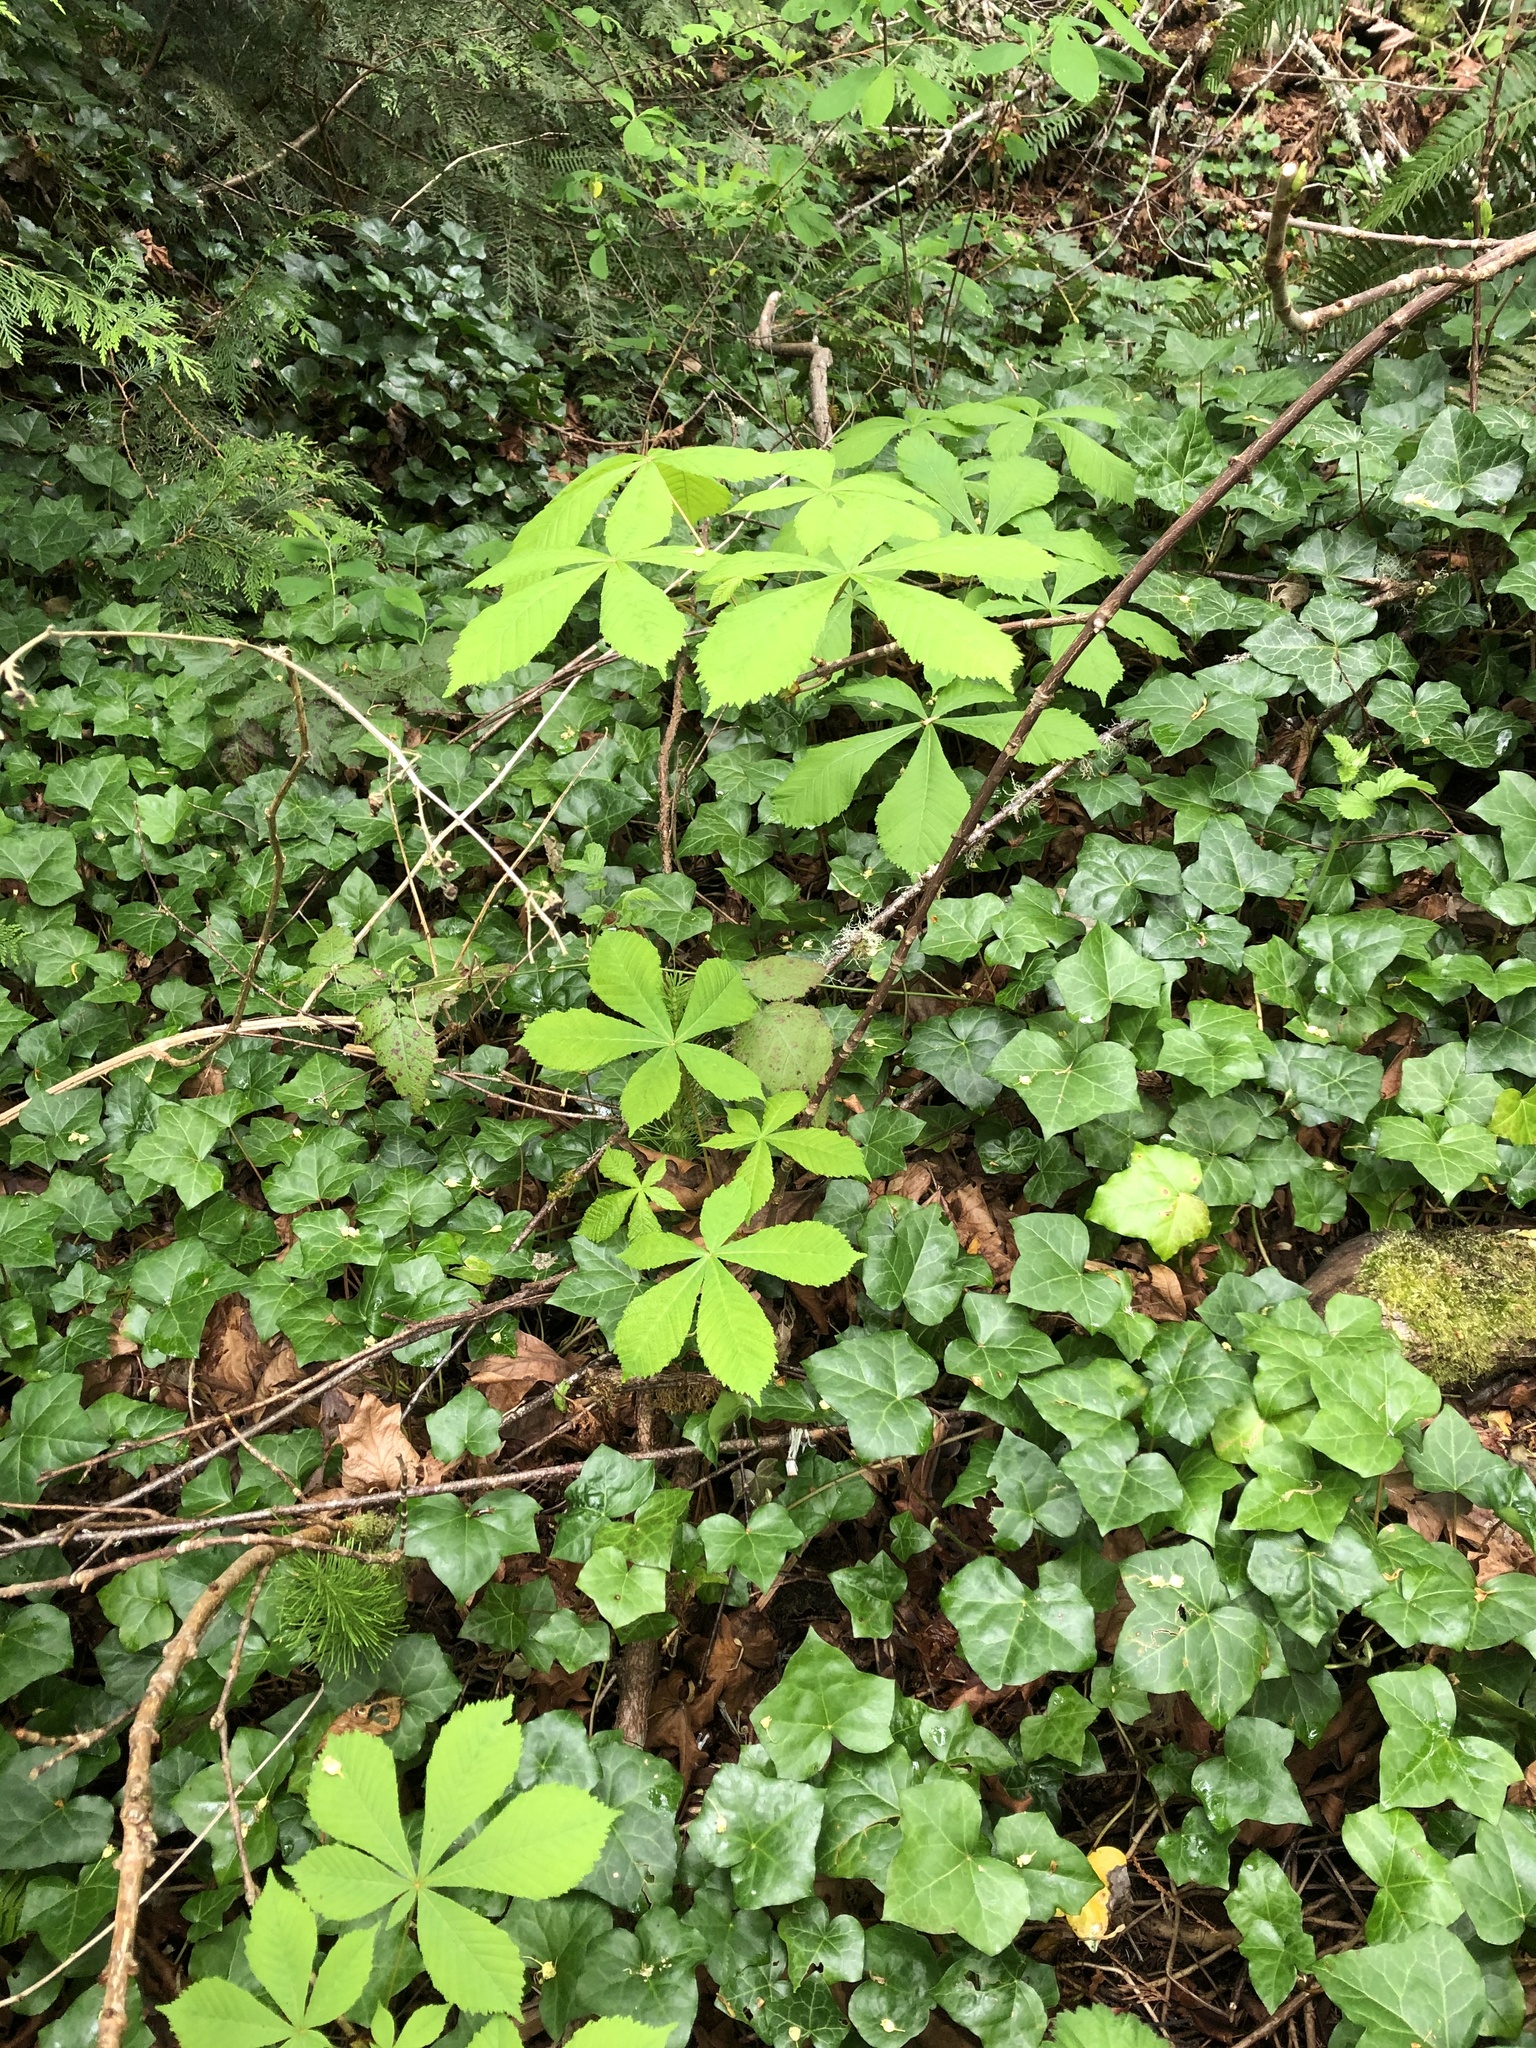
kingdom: Plantae
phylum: Tracheophyta
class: Magnoliopsida
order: Sapindales
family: Sapindaceae
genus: Aesculus
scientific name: Aesculus hippocastanum
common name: Horse-chestnut
